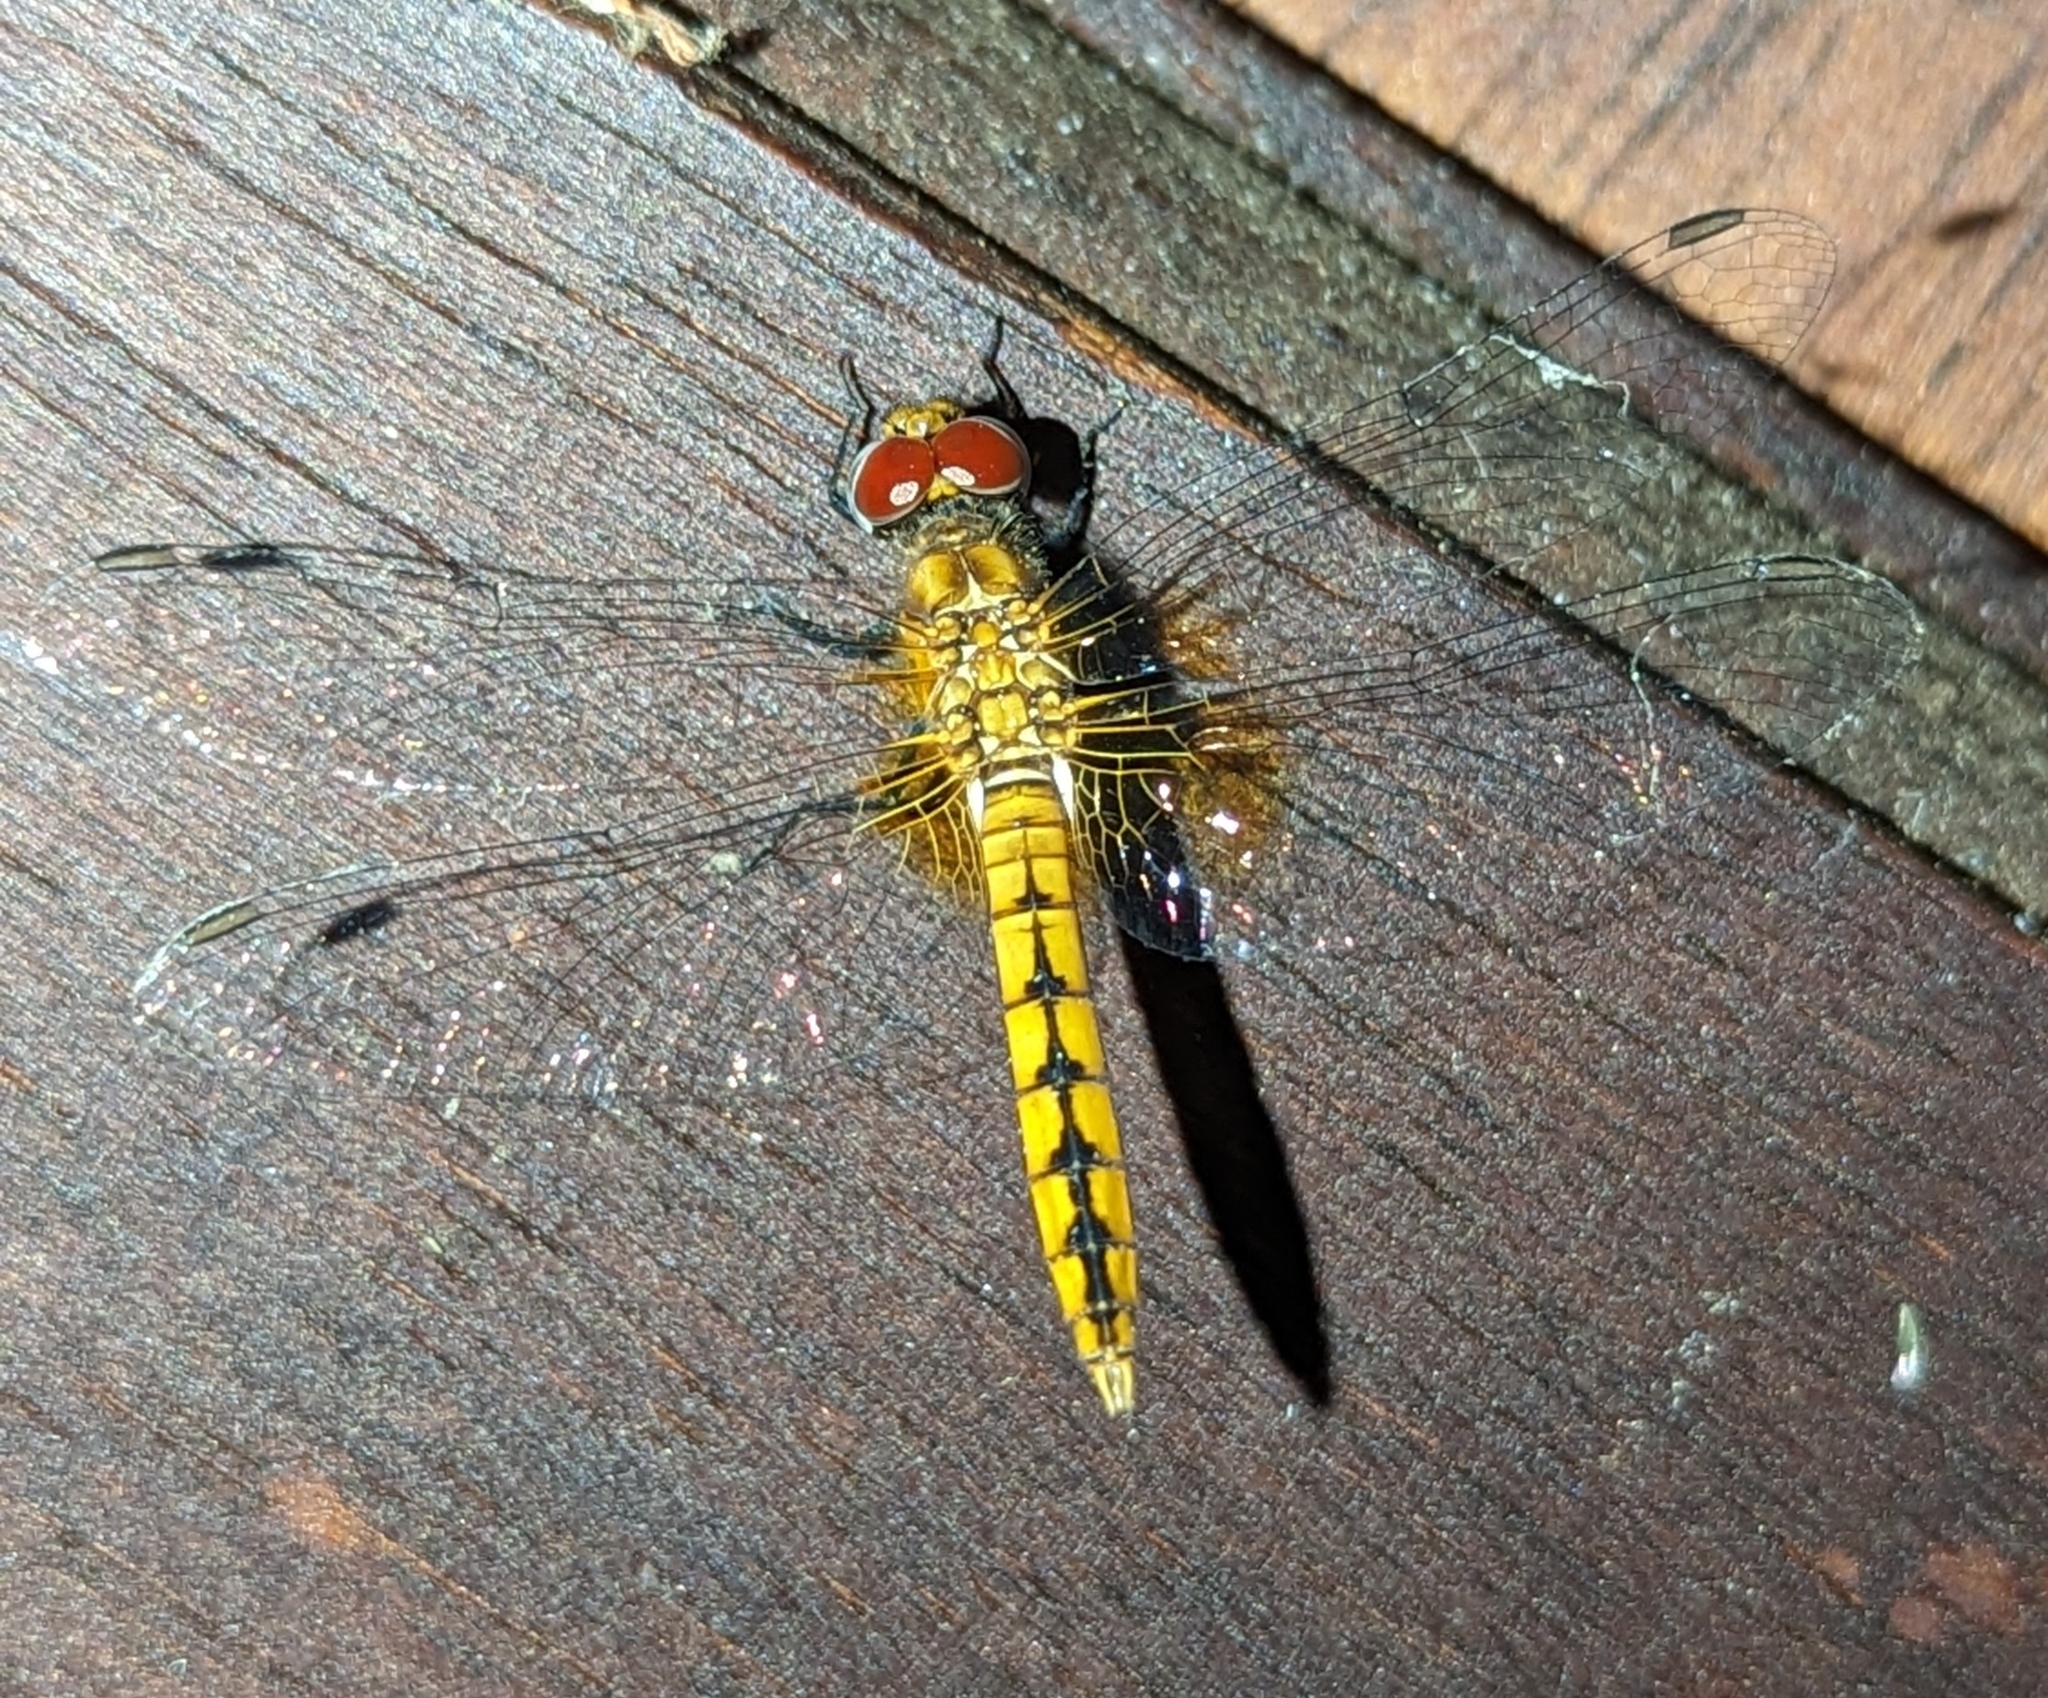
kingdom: Animalia
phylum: Arthropoda
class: Insecta
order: Odonata
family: Libellulidae
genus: Aethriamanta
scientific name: Aethriamanta rezia
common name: Pygmy basker
